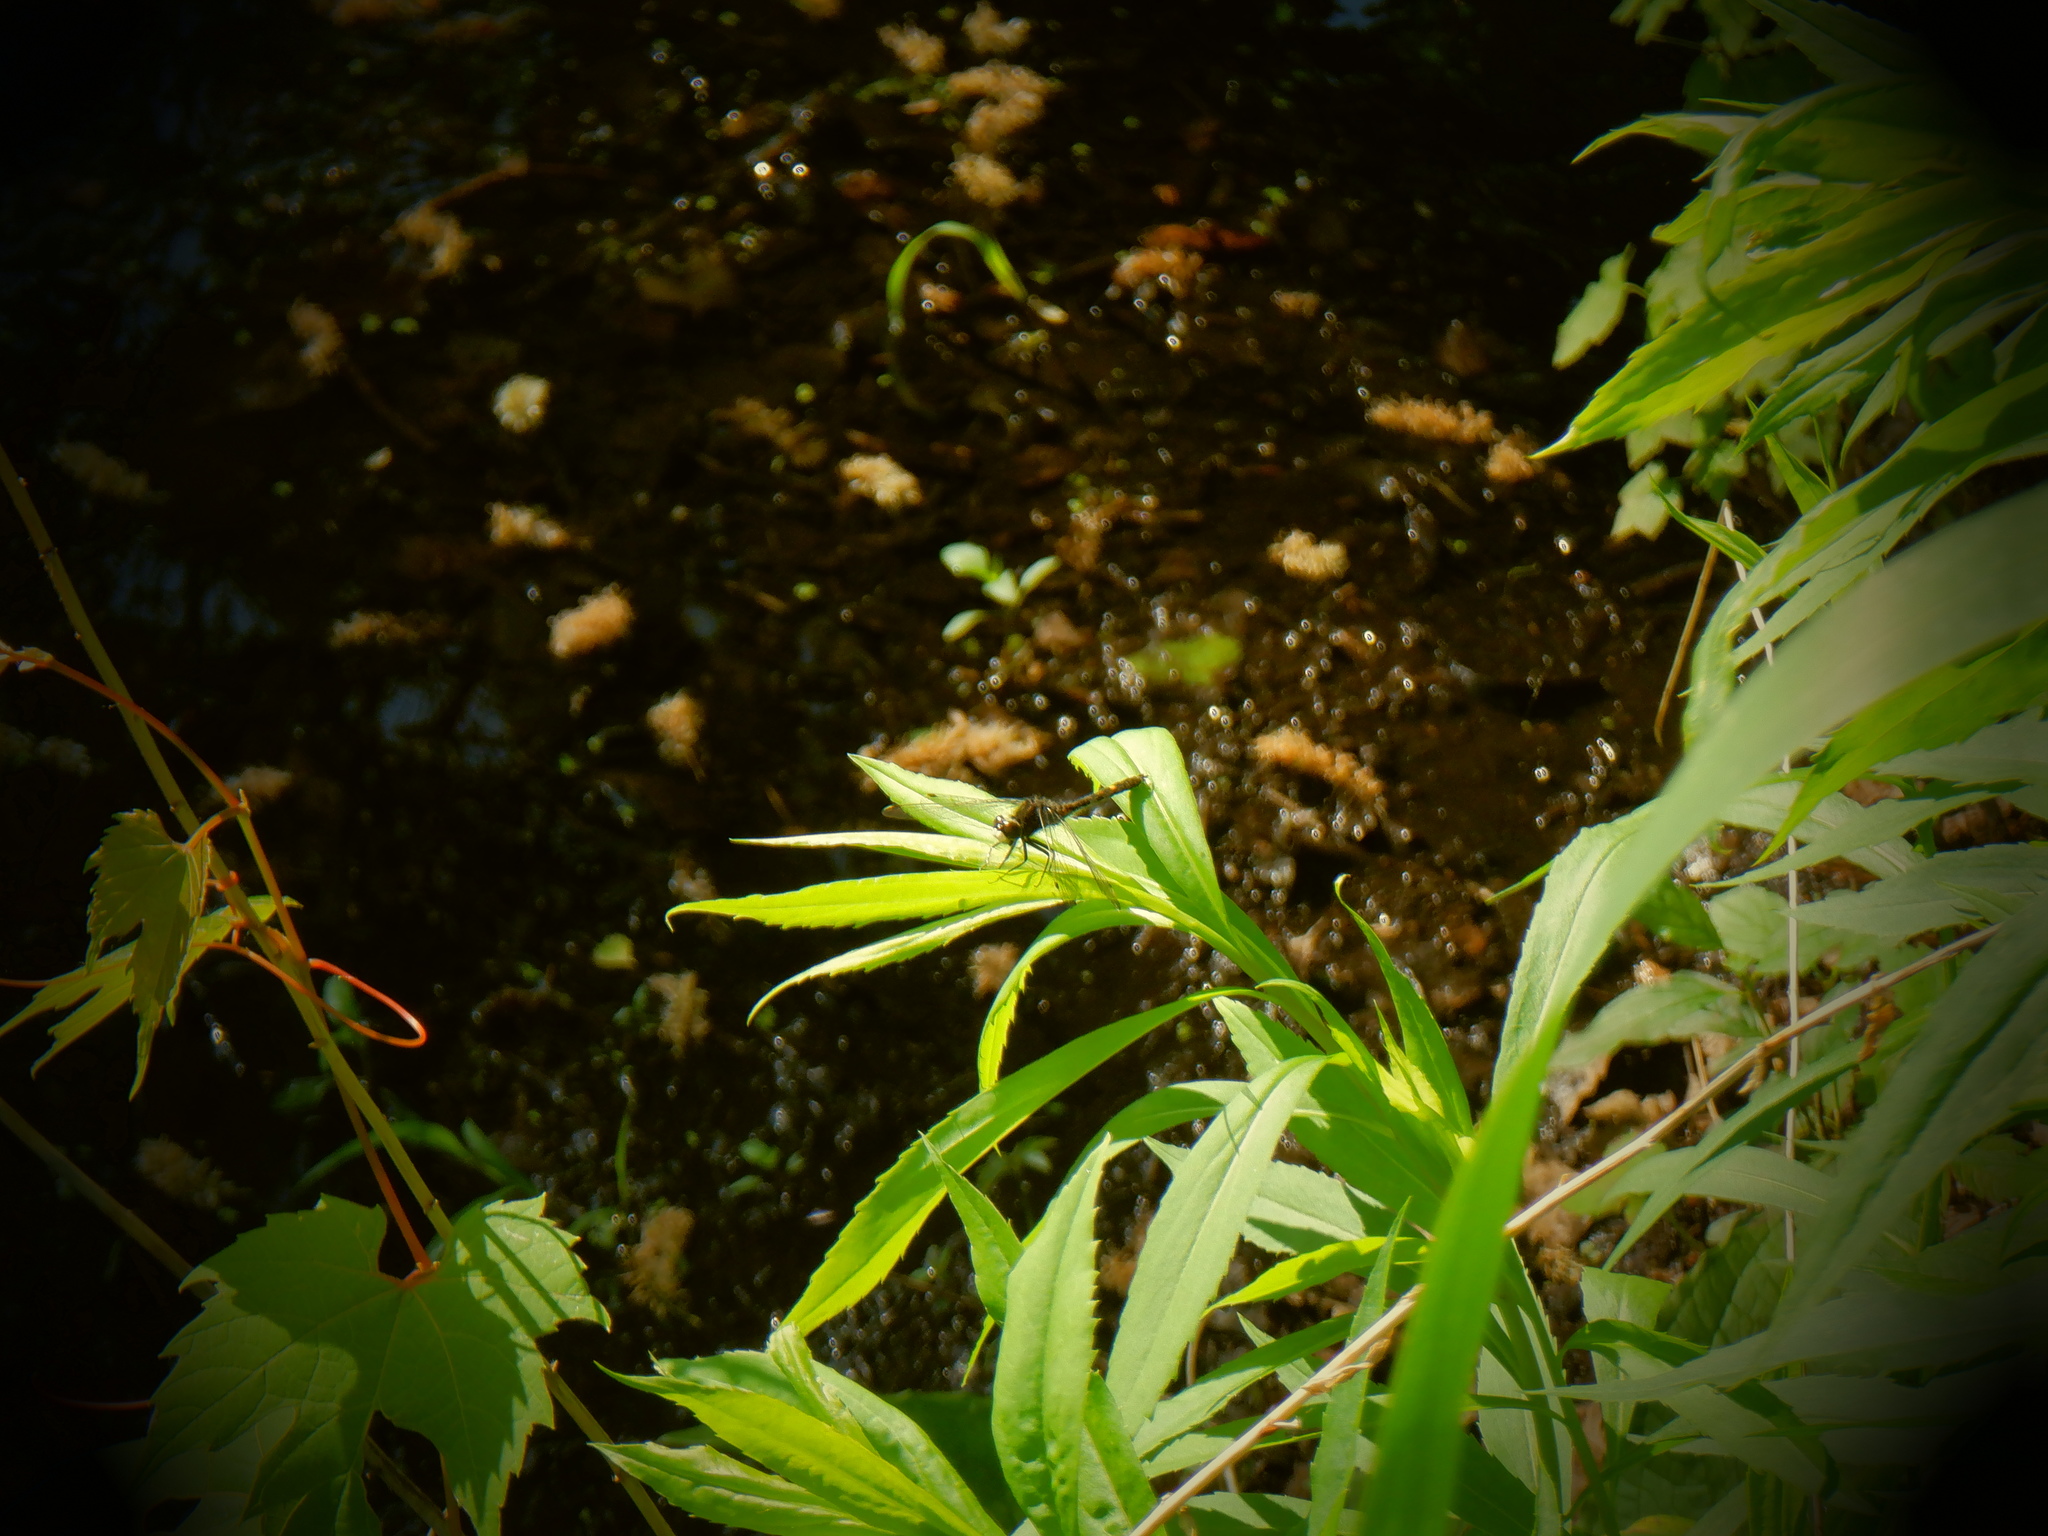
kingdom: Animalia
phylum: Arthropoda
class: Insecta
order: Odonata
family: Libellulidae
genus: Leucorrhinia
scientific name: Leucorrhinia intacta
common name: Dot-tailed whiteface
